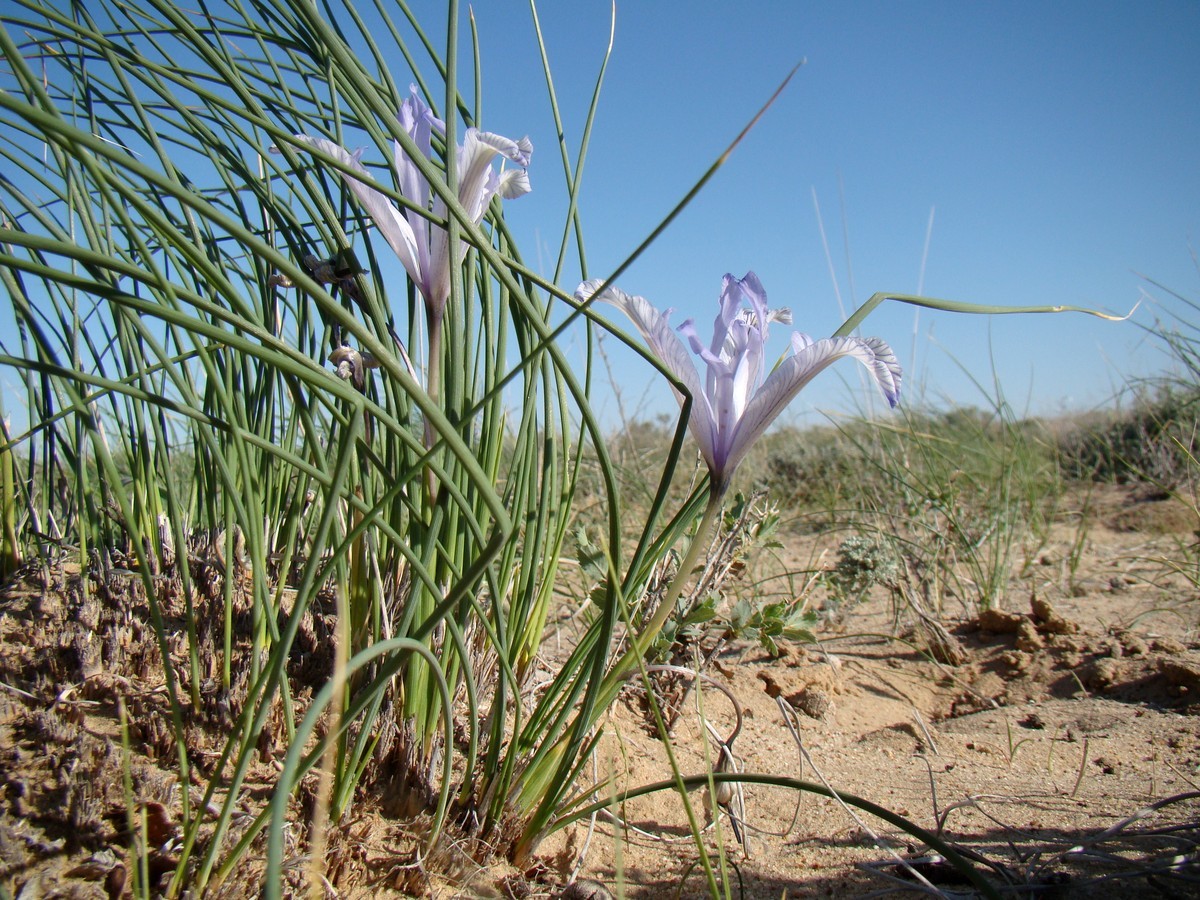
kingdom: Plantae
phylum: Tracheophyta
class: Liliopsida
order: Asparagales
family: Iridaceae
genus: Iris
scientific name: Iris tenuifolia
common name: Slender-leaf iris
